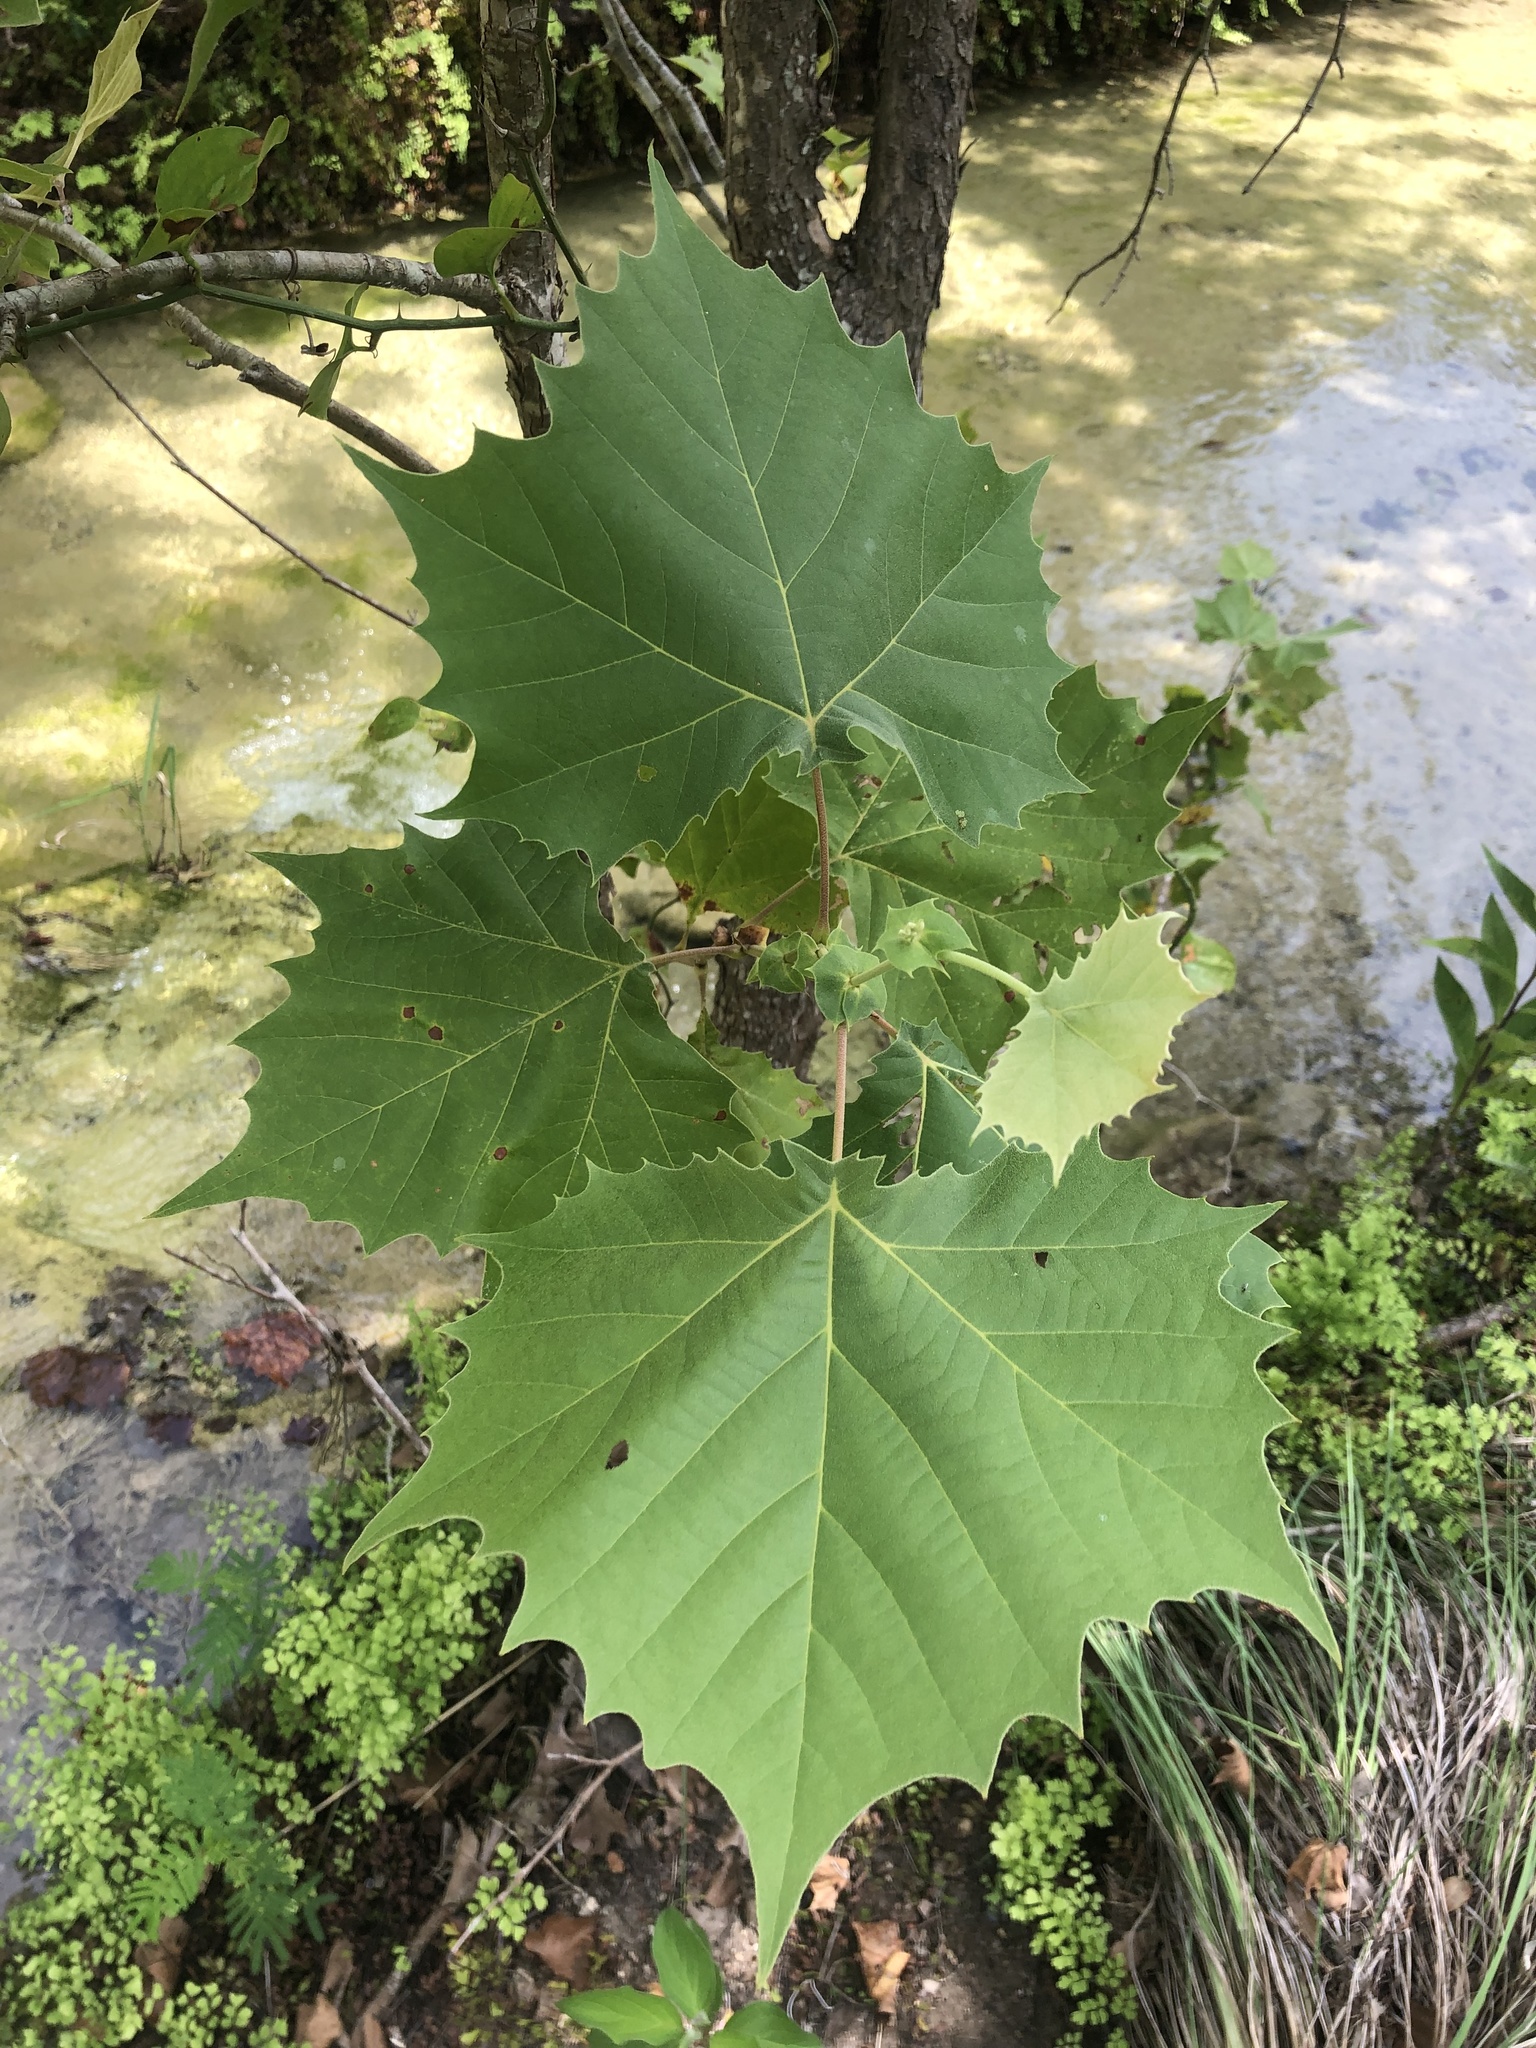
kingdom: Plantae
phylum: Tracheophyta
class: Magnoliopsida
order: Proteales
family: Platanaceae
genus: Platanus
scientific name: Platanus occidentalis
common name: American sycamore
